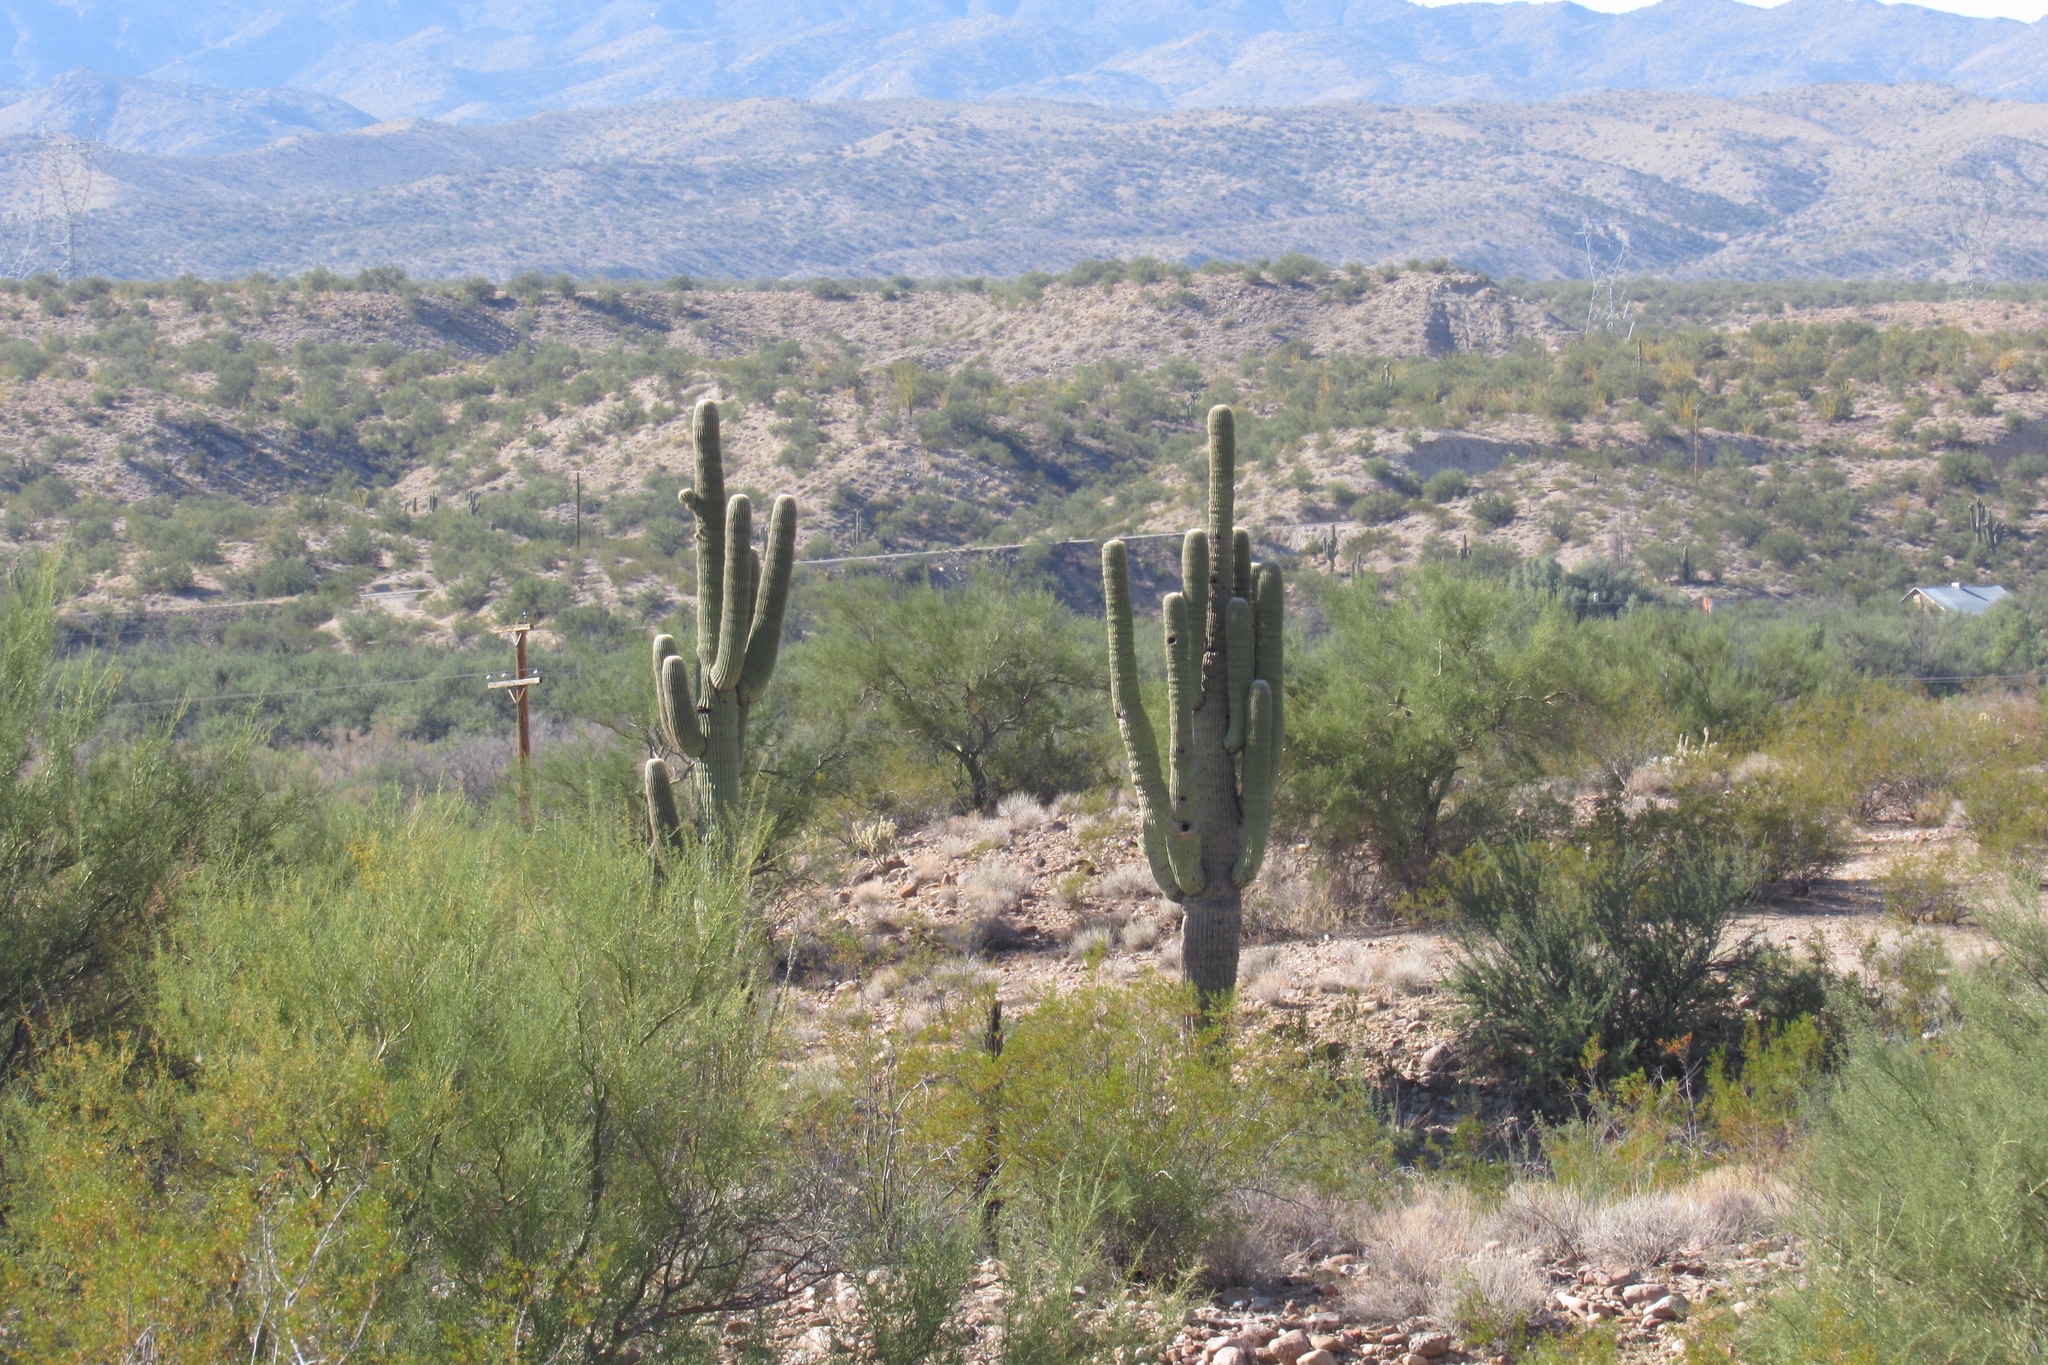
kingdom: Plantae
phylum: Tracheophyta
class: Magnoliopsida
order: Caryophyllales
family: Cactaceae
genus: Carnegiea
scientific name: Carnegiea gigantea
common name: Saguaro
